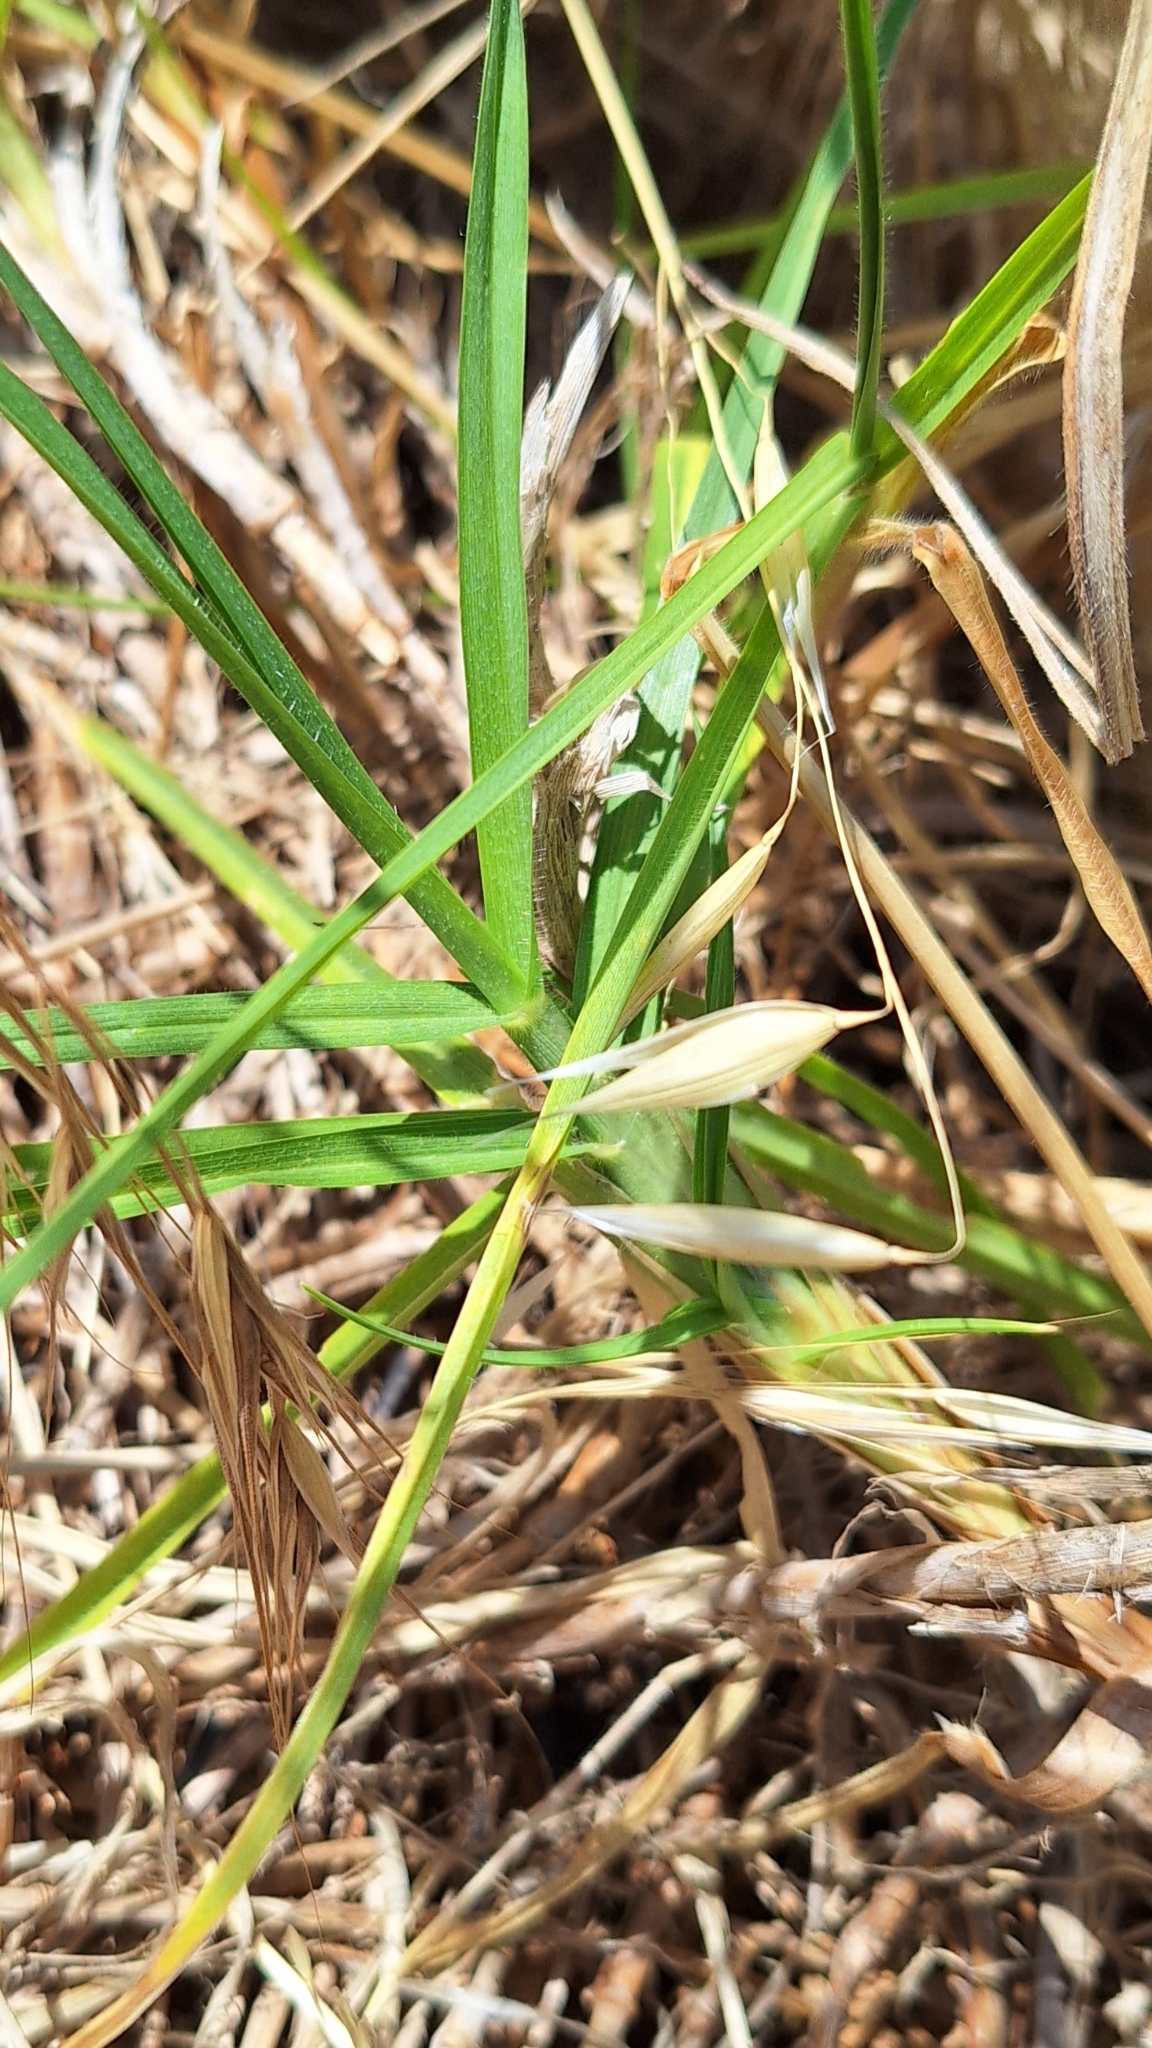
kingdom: Plantae
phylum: Tracheophyta
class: Liliopsida
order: Poales
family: Poaceae
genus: Cenchrus
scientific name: Cenchrus clandestinus
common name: Kikuyugrass
